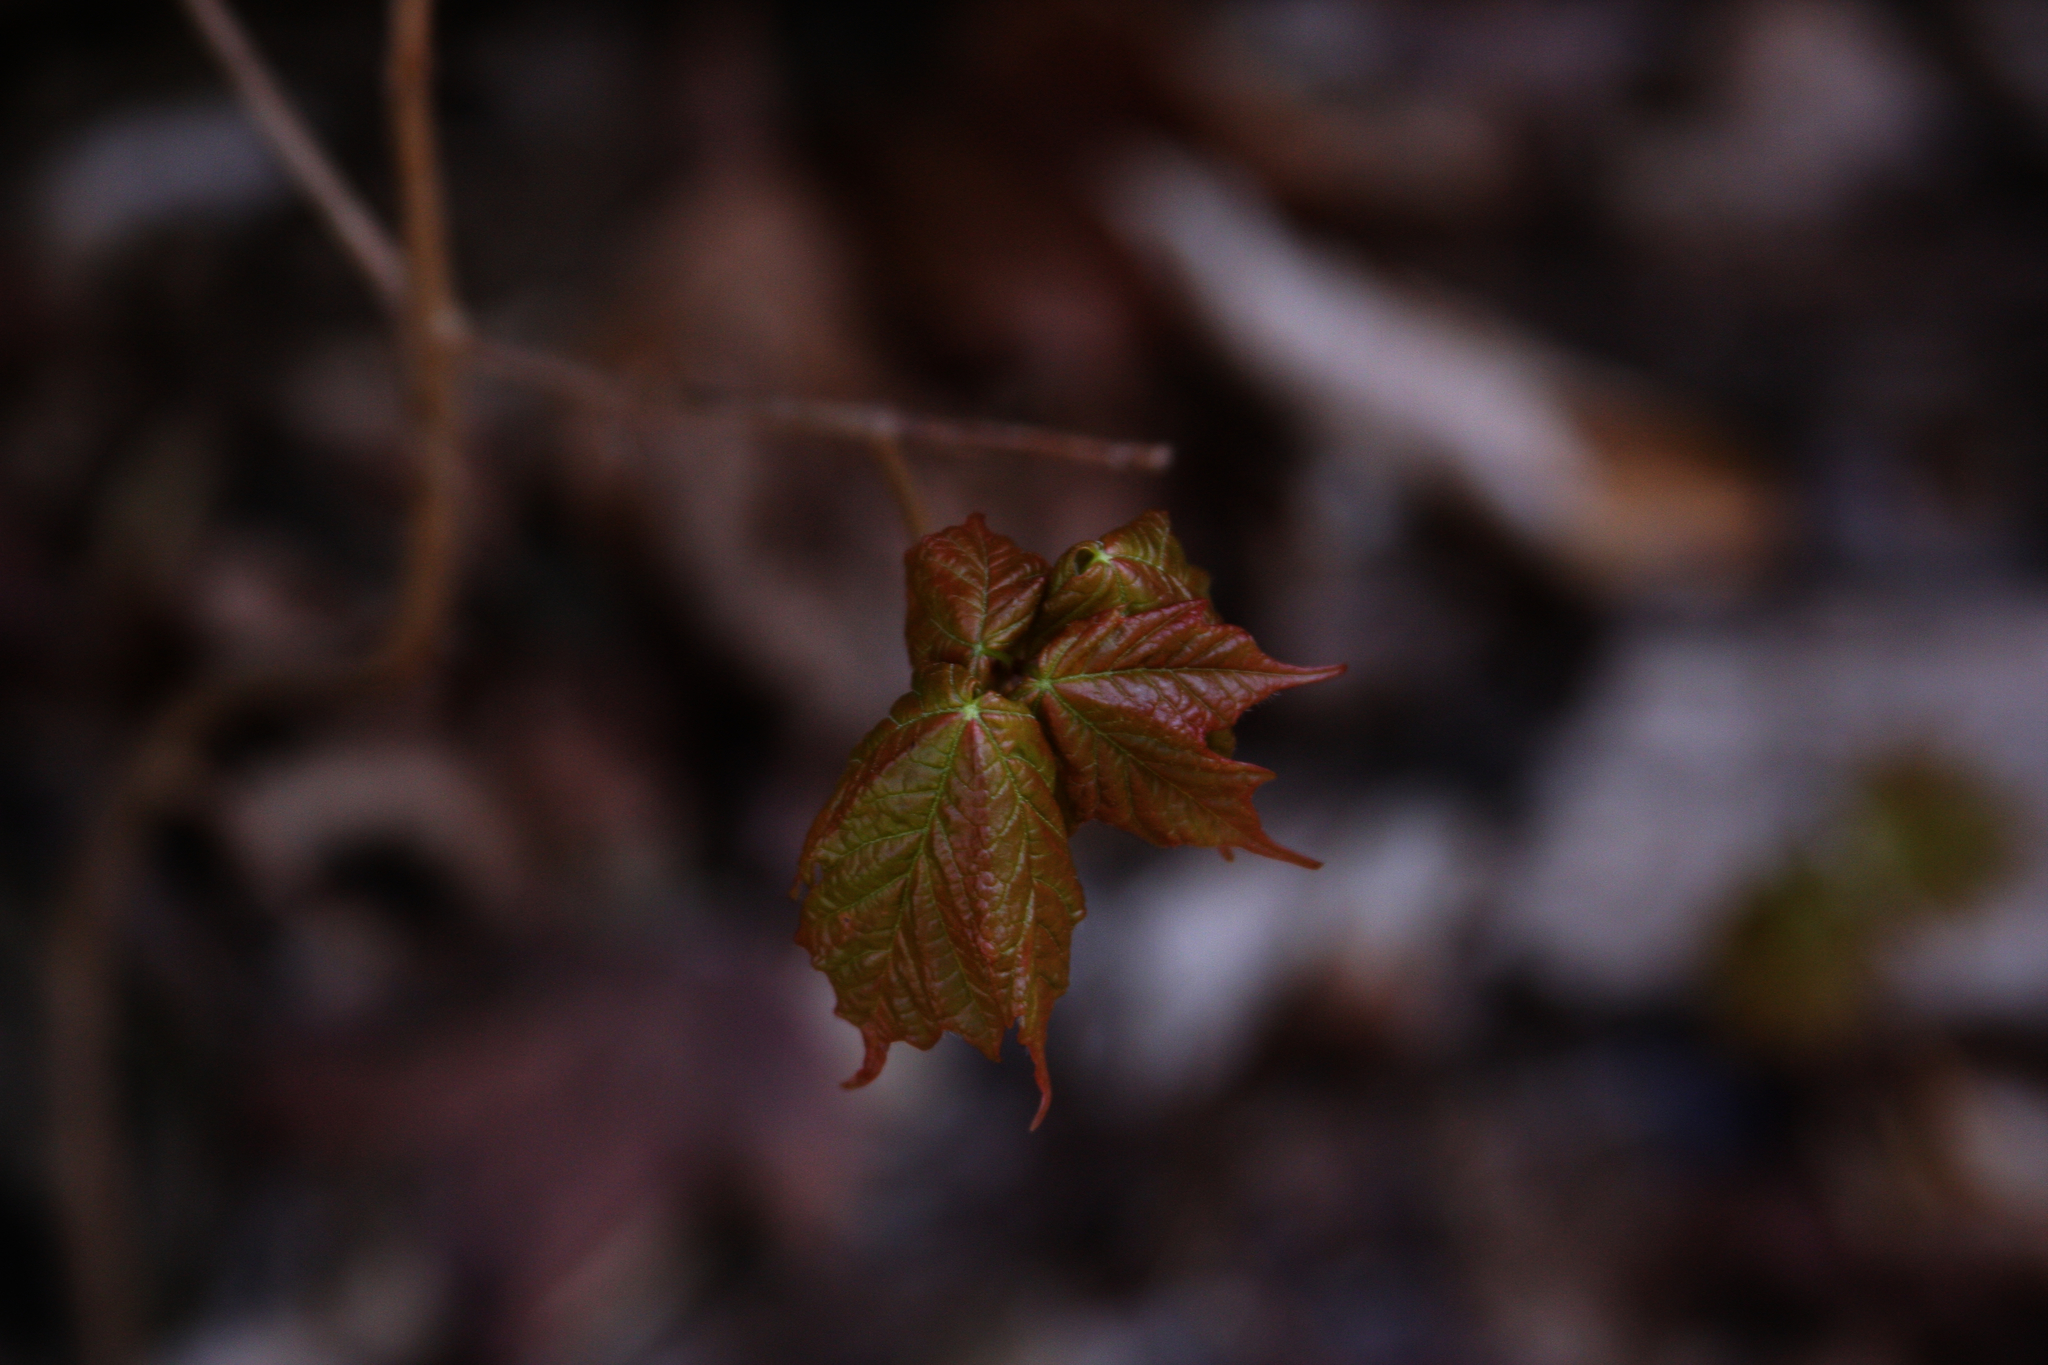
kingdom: Plantae
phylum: Tracheophyta
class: Magnoliopsida
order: Sapindales
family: Sapindaceae
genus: Acer
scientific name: Acer rubrum
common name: Red maple
